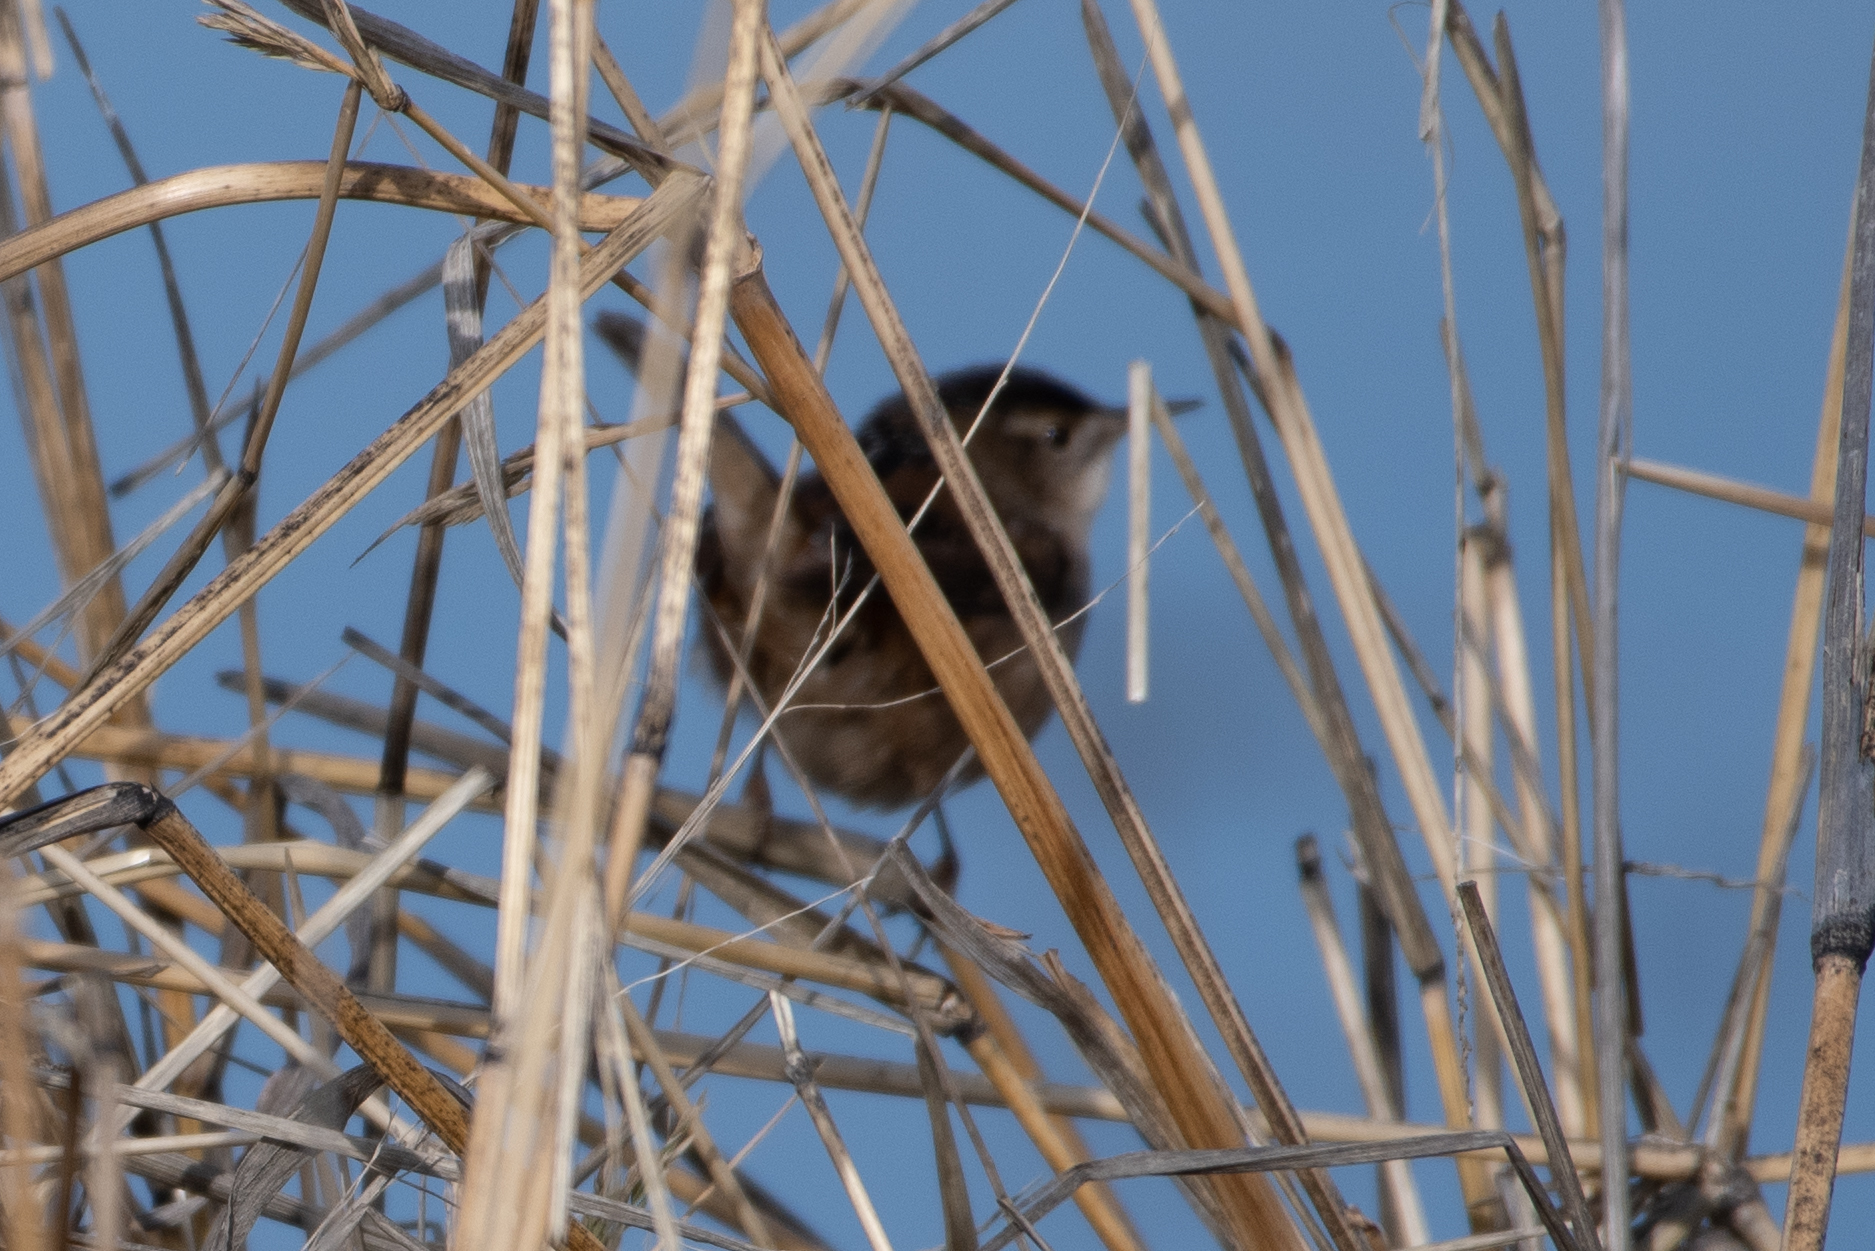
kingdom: Animalia
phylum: Chordata
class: Aves
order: Passeriformes
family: Troglodytidae
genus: Cistothorus
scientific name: Cistothorus palustris
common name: Marsh wren
